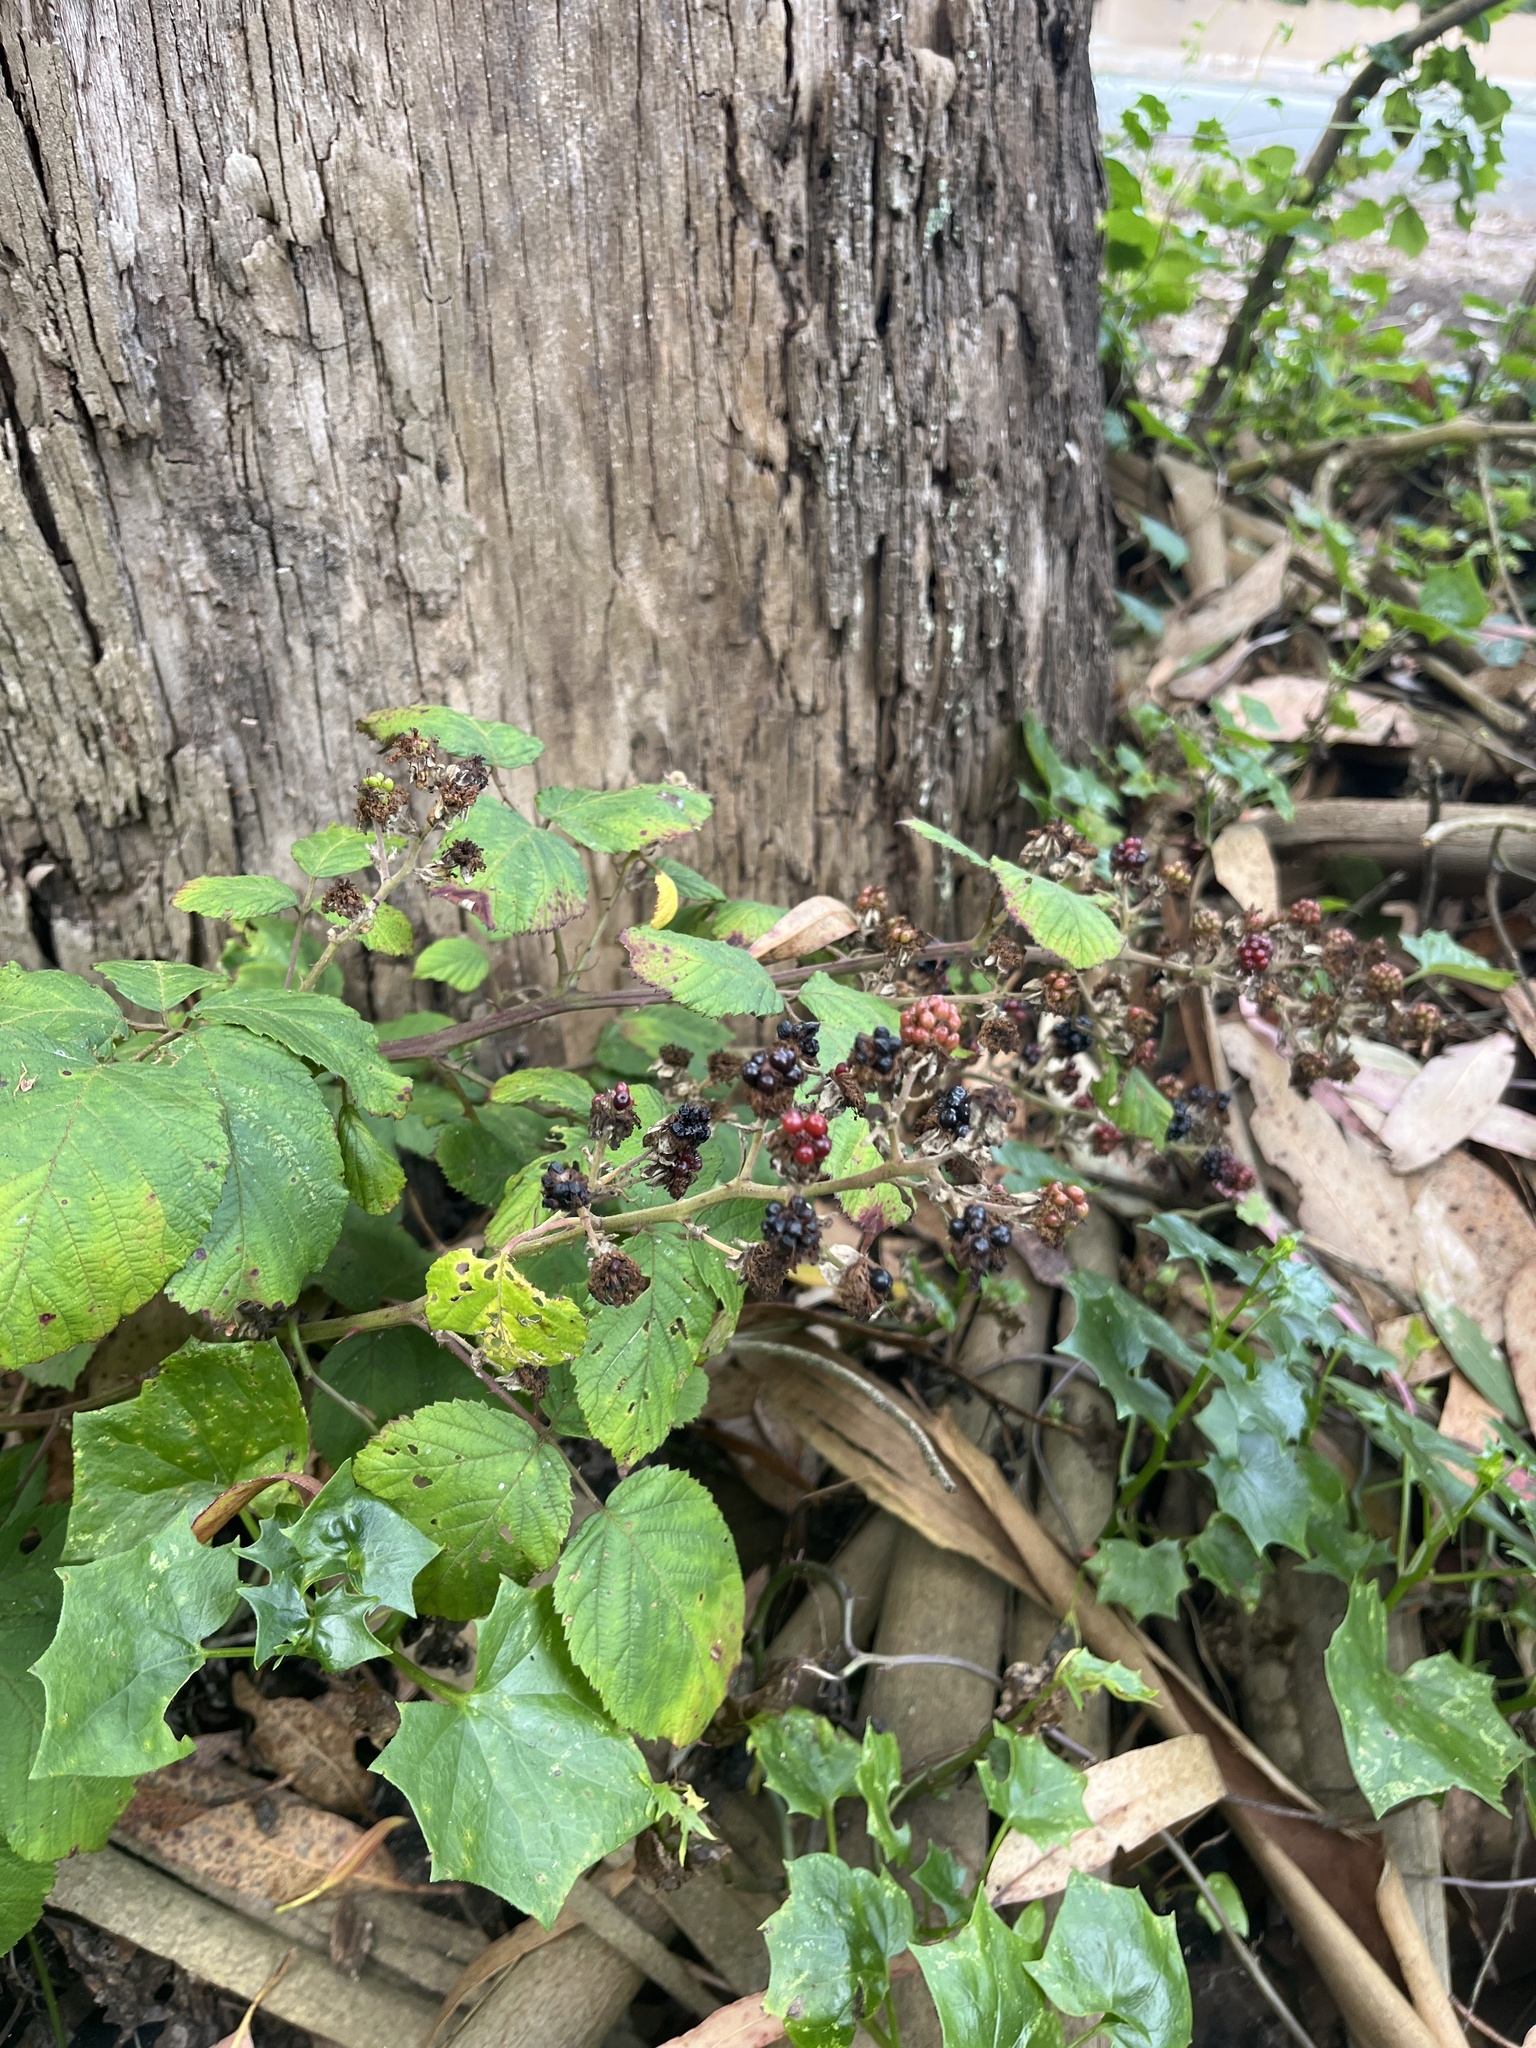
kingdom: Plantae
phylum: Tracheophyta
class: Magnoliopsida
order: Rosales
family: Rosaceae
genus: Rubus
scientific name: Rubus
